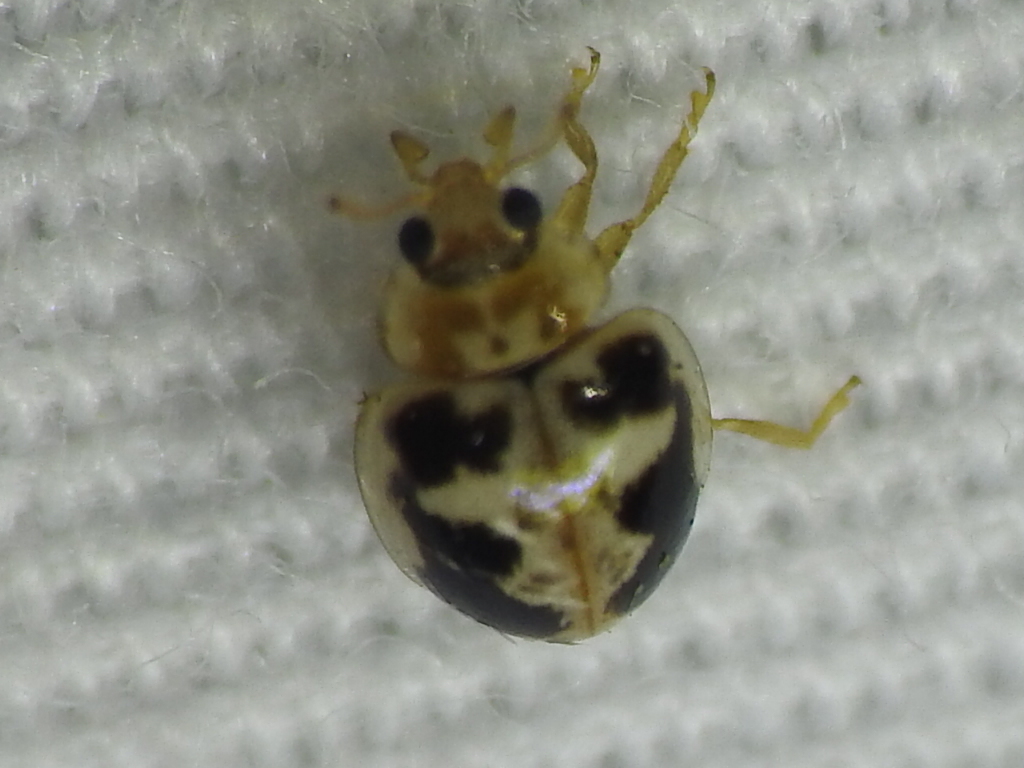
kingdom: Animalia
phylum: Arthropoda
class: Insecta
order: Coleoptera
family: Coccinellidae
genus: Psyllobora
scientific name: Psyllobora renifer
